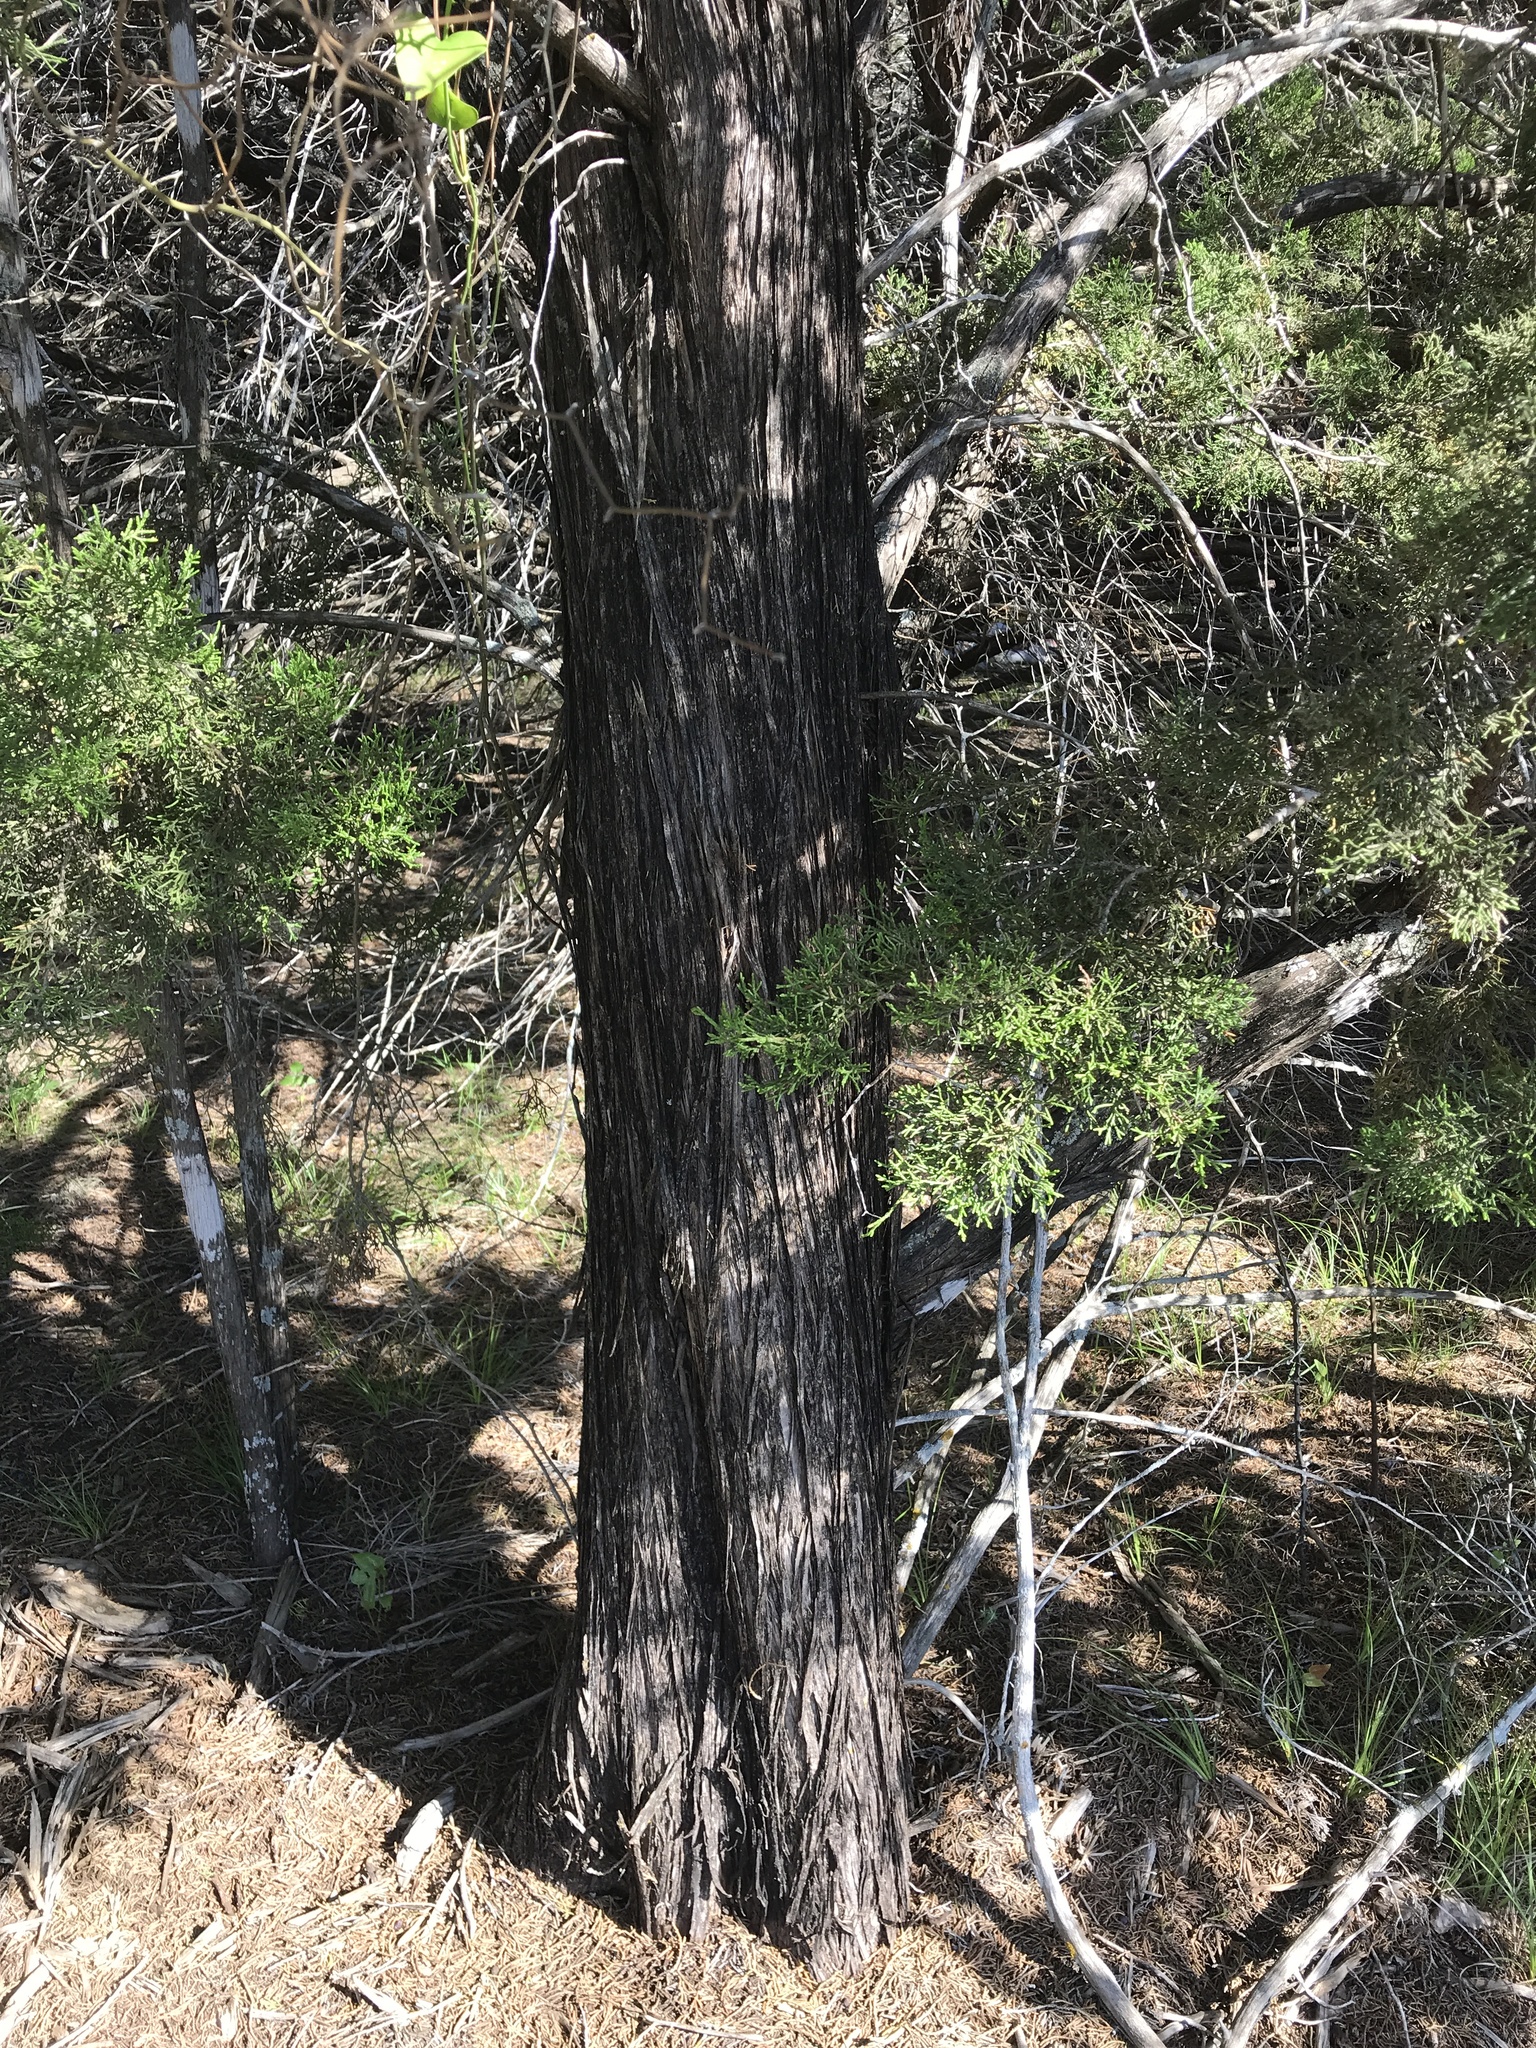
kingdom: Plantae
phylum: Tracheophyta
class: Pinopsida
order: Pinales
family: Cupressaceae
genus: Juniperus
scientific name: Juniperus ashei
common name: Mexican juniper
